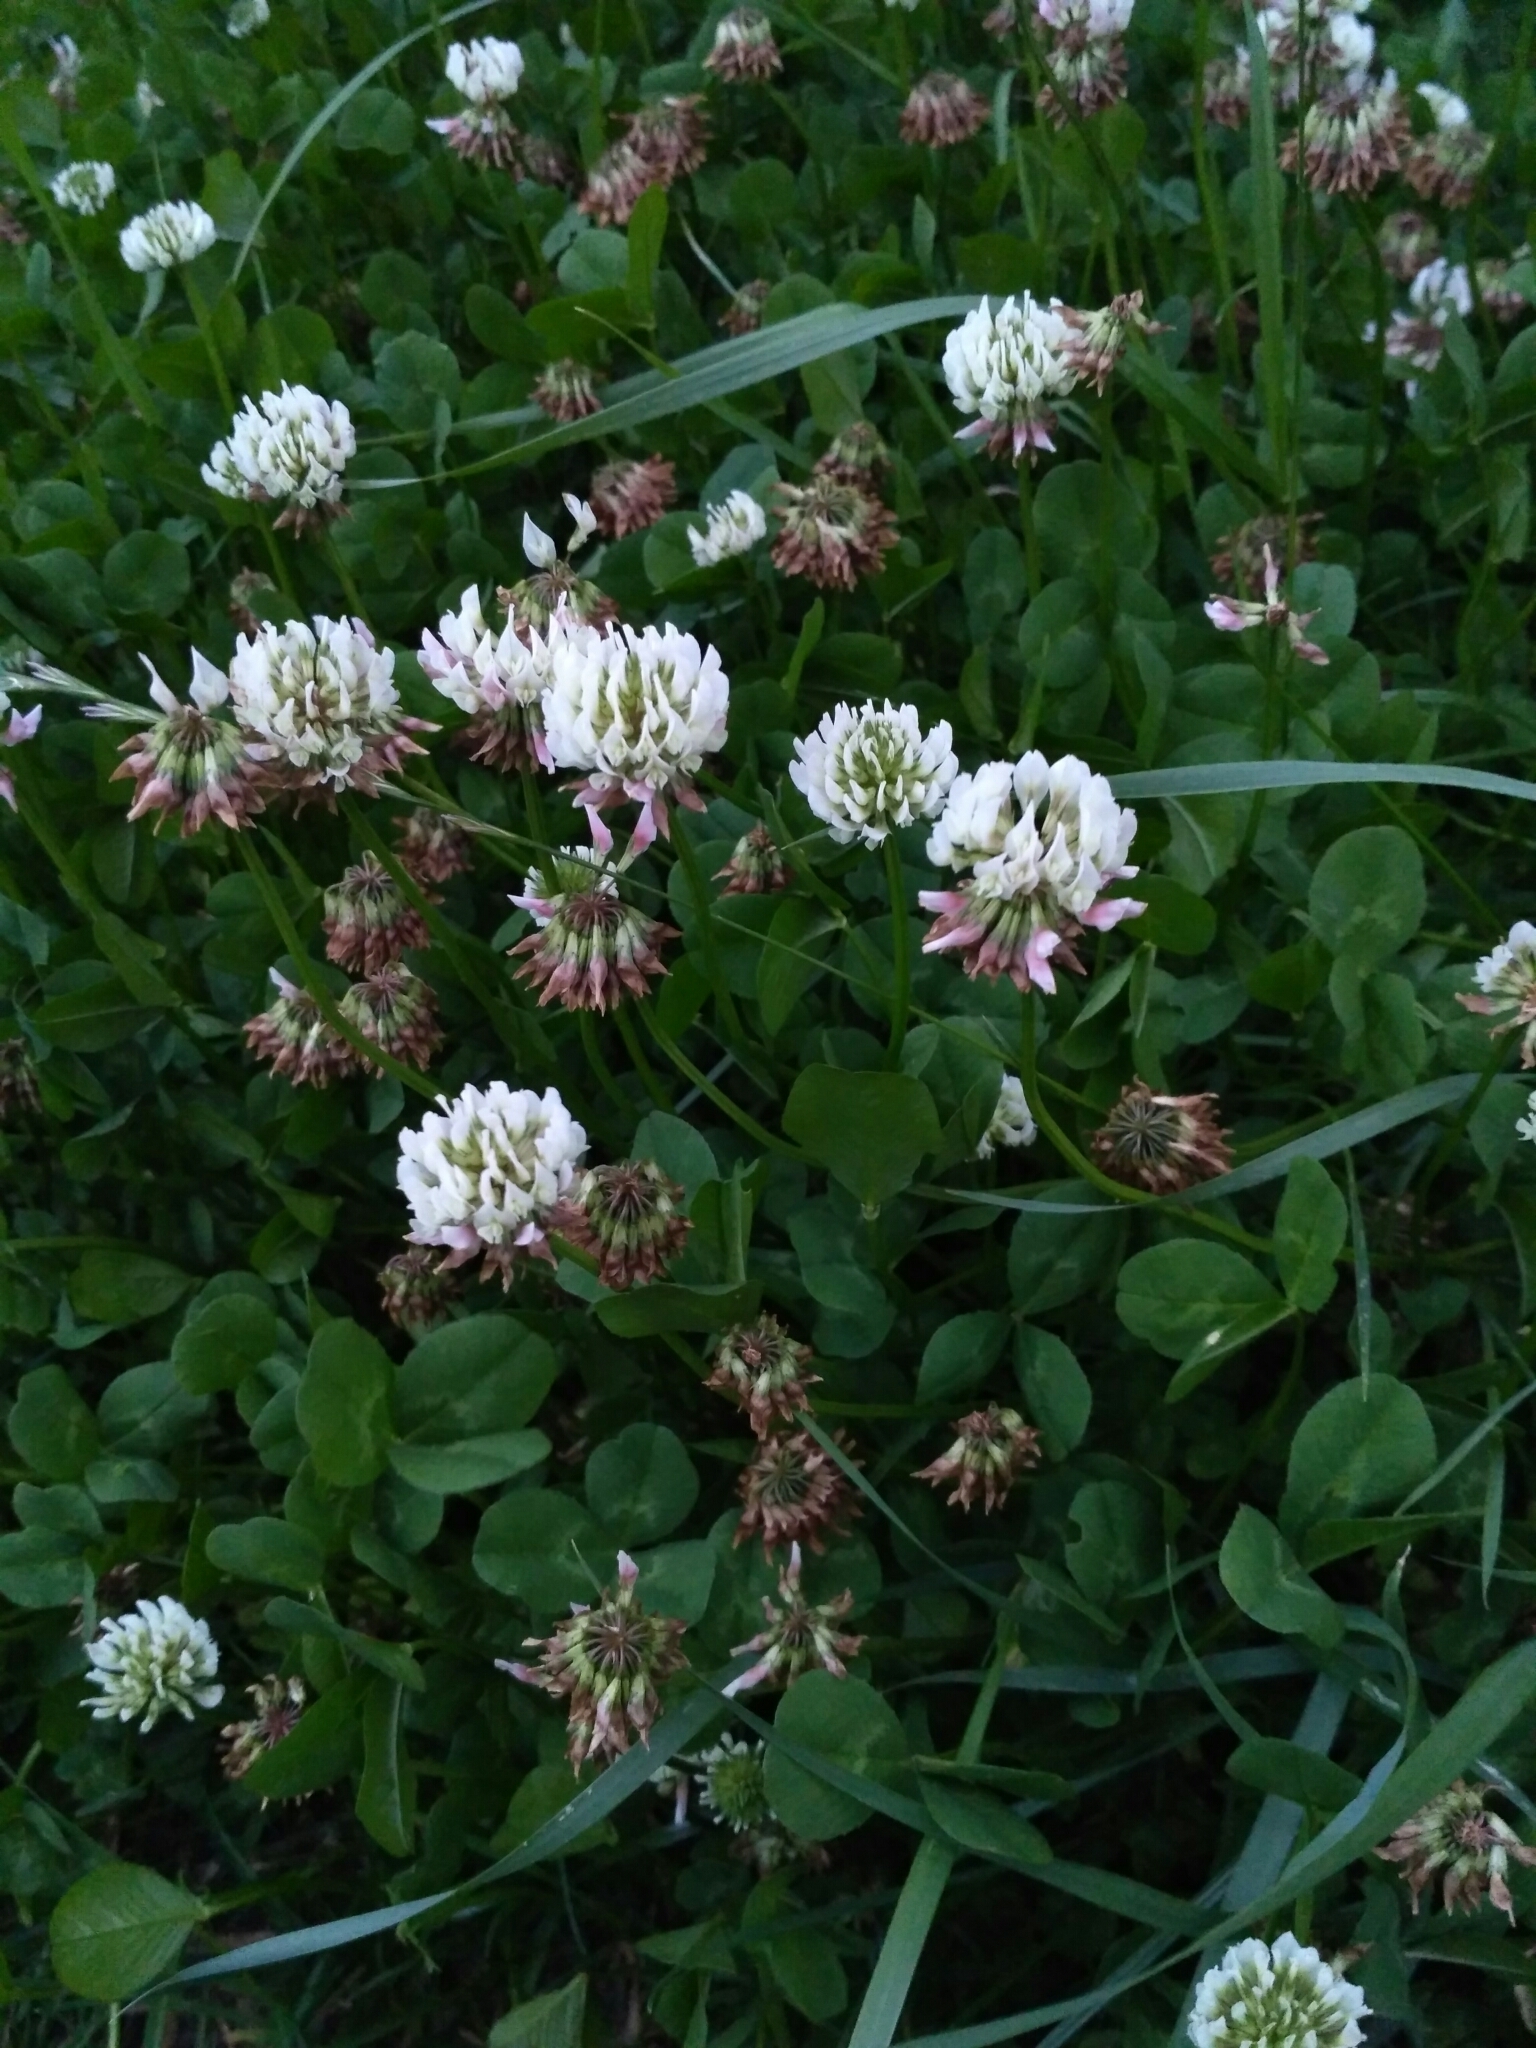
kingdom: Plantae
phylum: Tracheophyta
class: Magnoliopsida
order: Fabales
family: Fabaceae
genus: Trifolium
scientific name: Trifolium repens
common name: White clover
